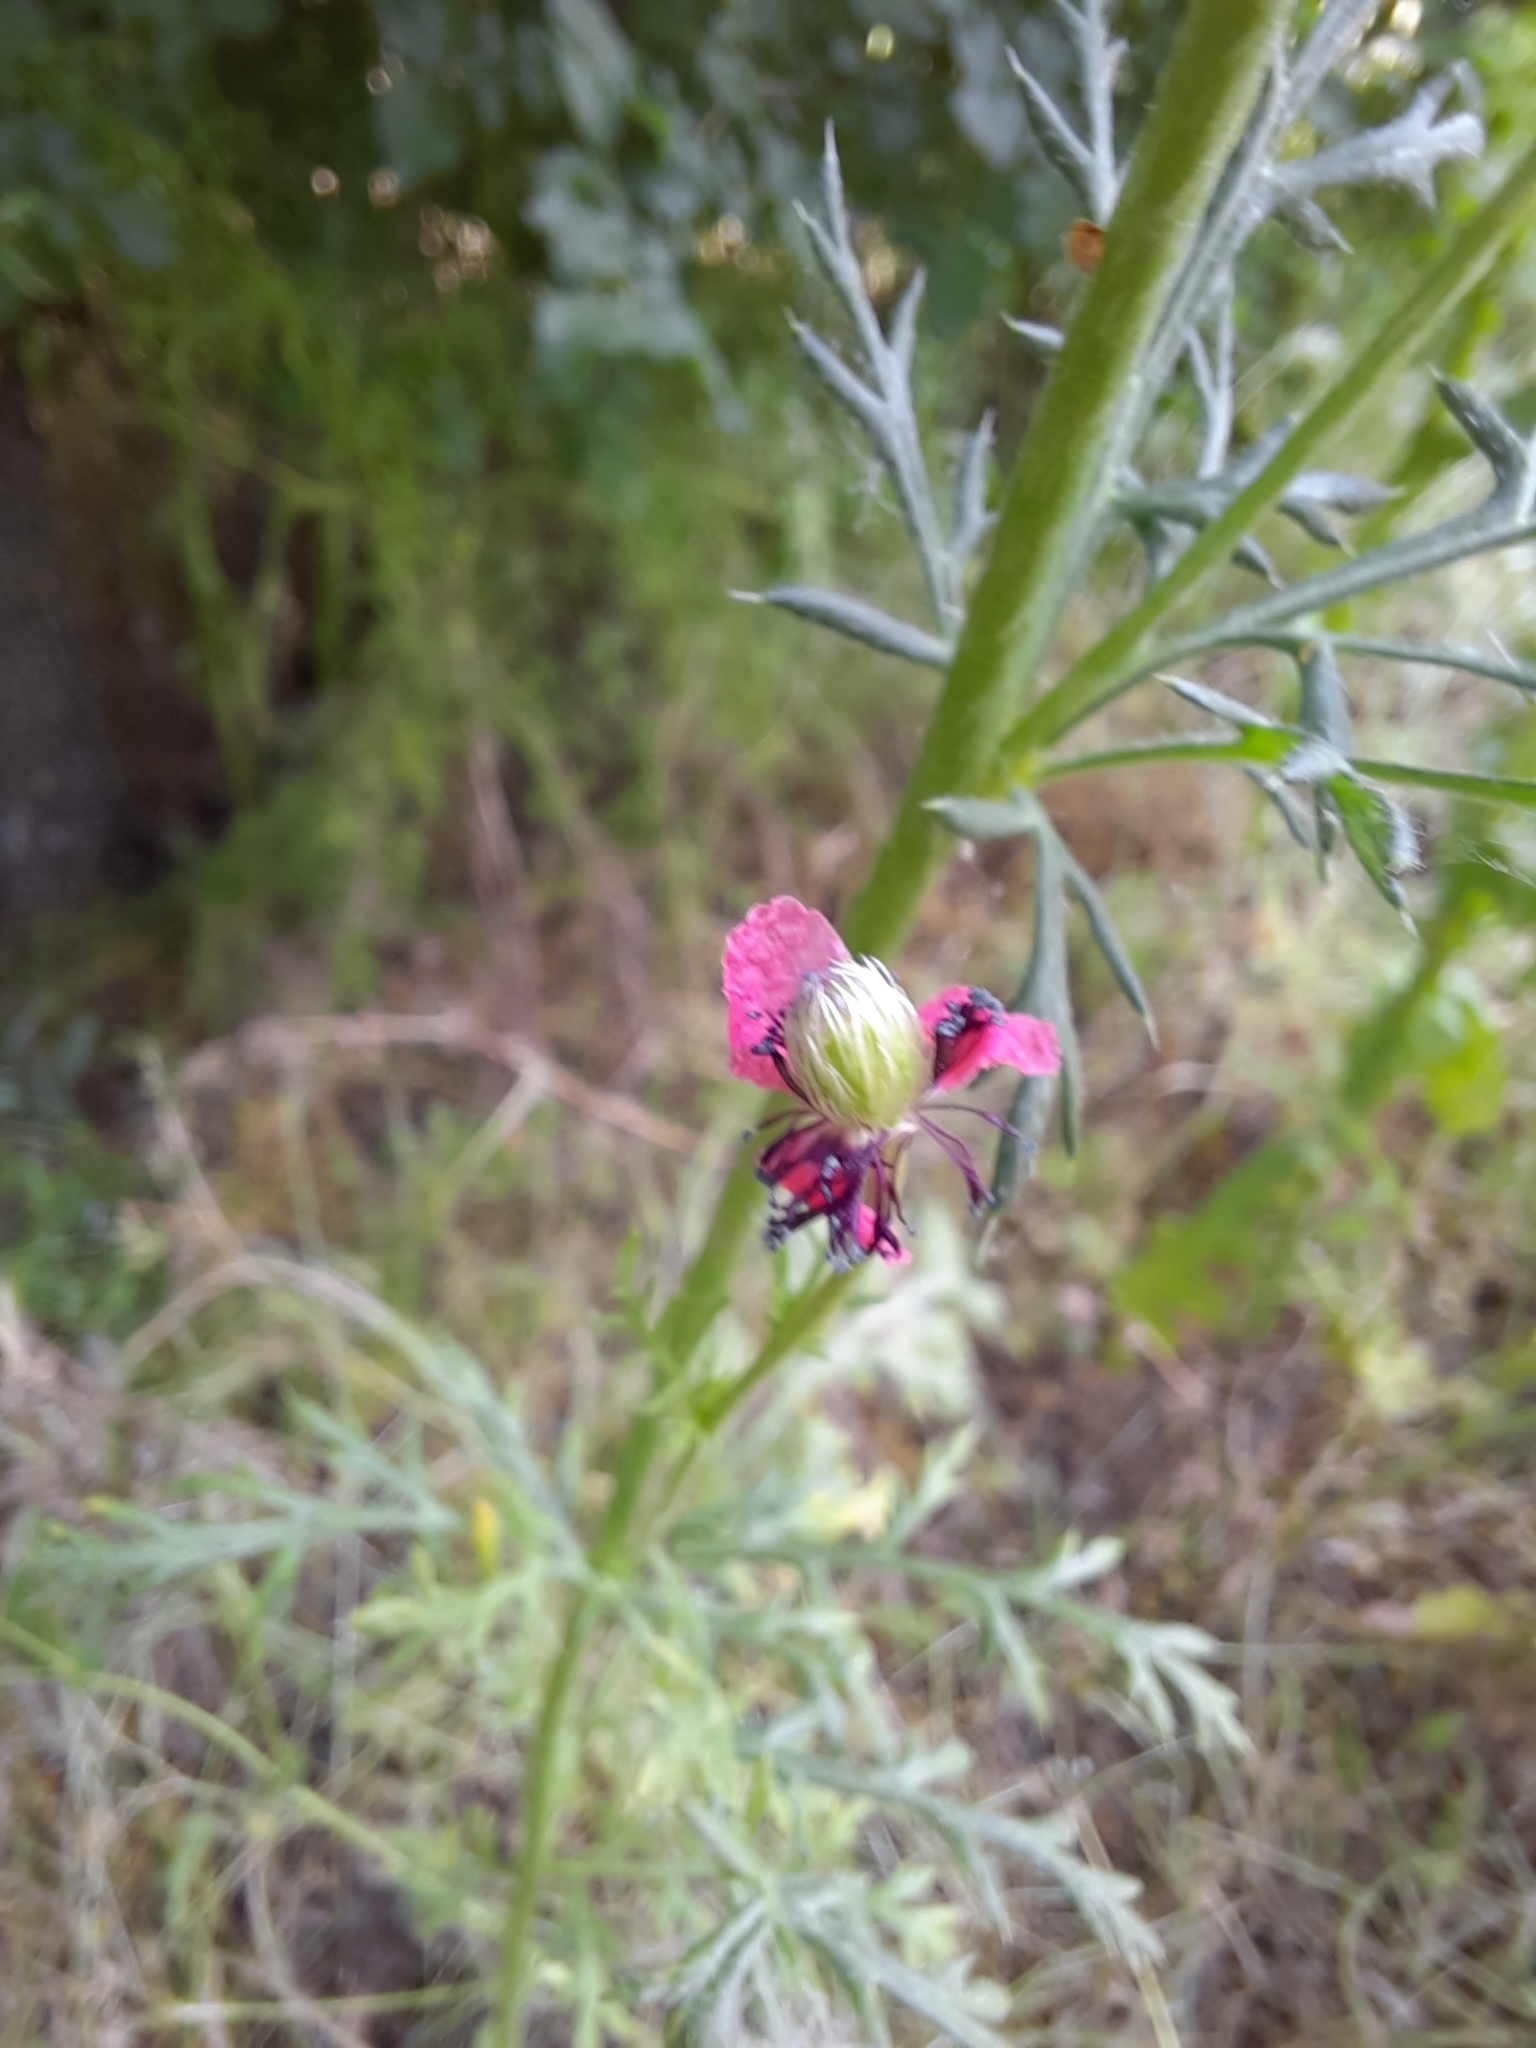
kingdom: Plantae
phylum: Tracheophyta
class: Magnoliopsida
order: Ranunculales
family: Papaveraceae
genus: Roemeria
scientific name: Roemeria hispida
